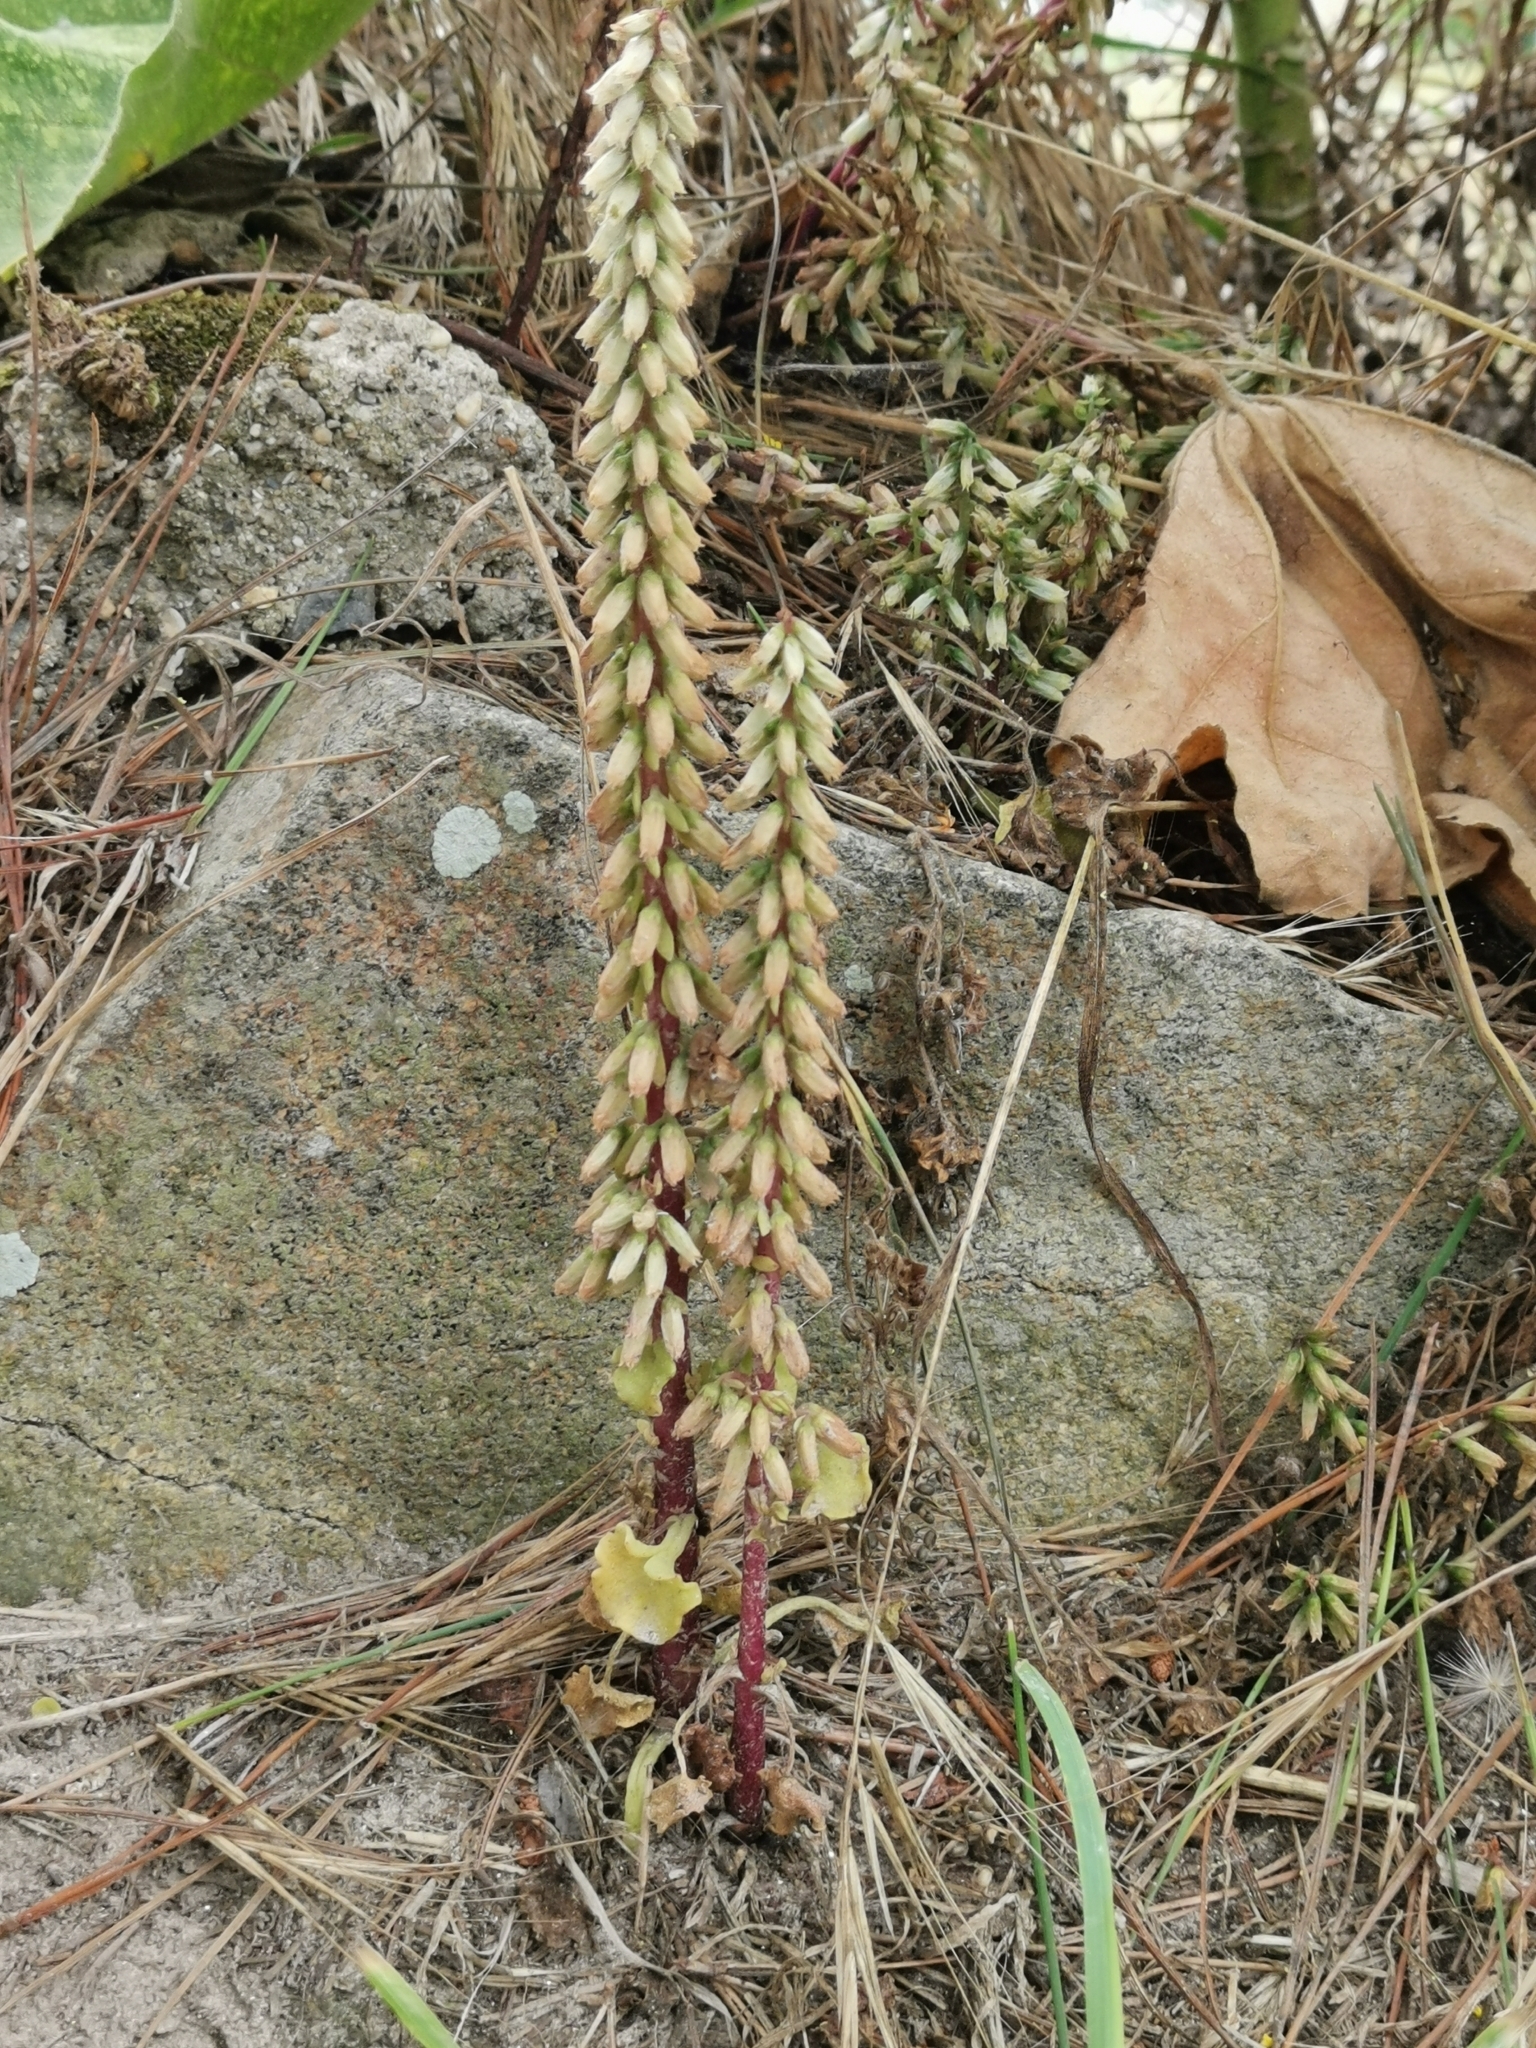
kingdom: Plantae
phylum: Tracheophyta
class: Magnoliopsida
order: Saxifragales
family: Crassulaceae
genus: Umbilicus
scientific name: Umbilicus rupestris
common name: Navelwort
